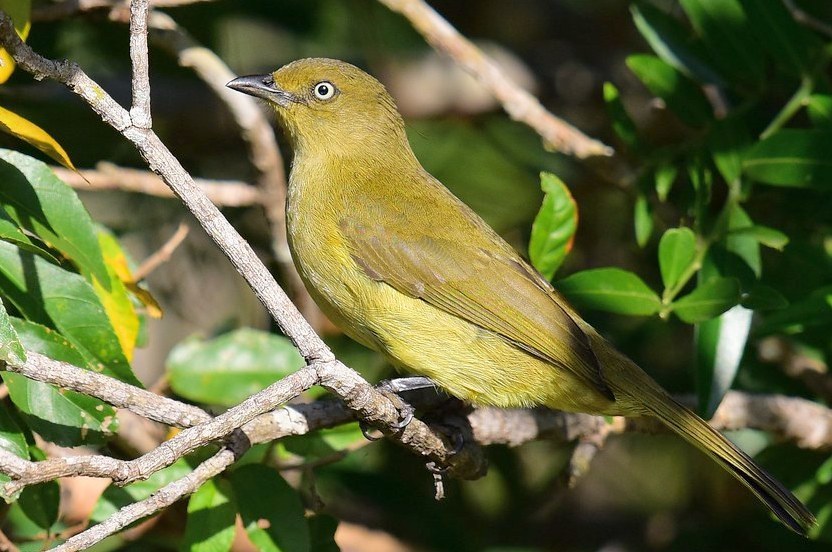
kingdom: Animalia
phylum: Chordata
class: Aves
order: Passeriformes
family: Pycnonotidae
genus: Andropadus
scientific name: Andropadus importunus
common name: Sombre greenbul
